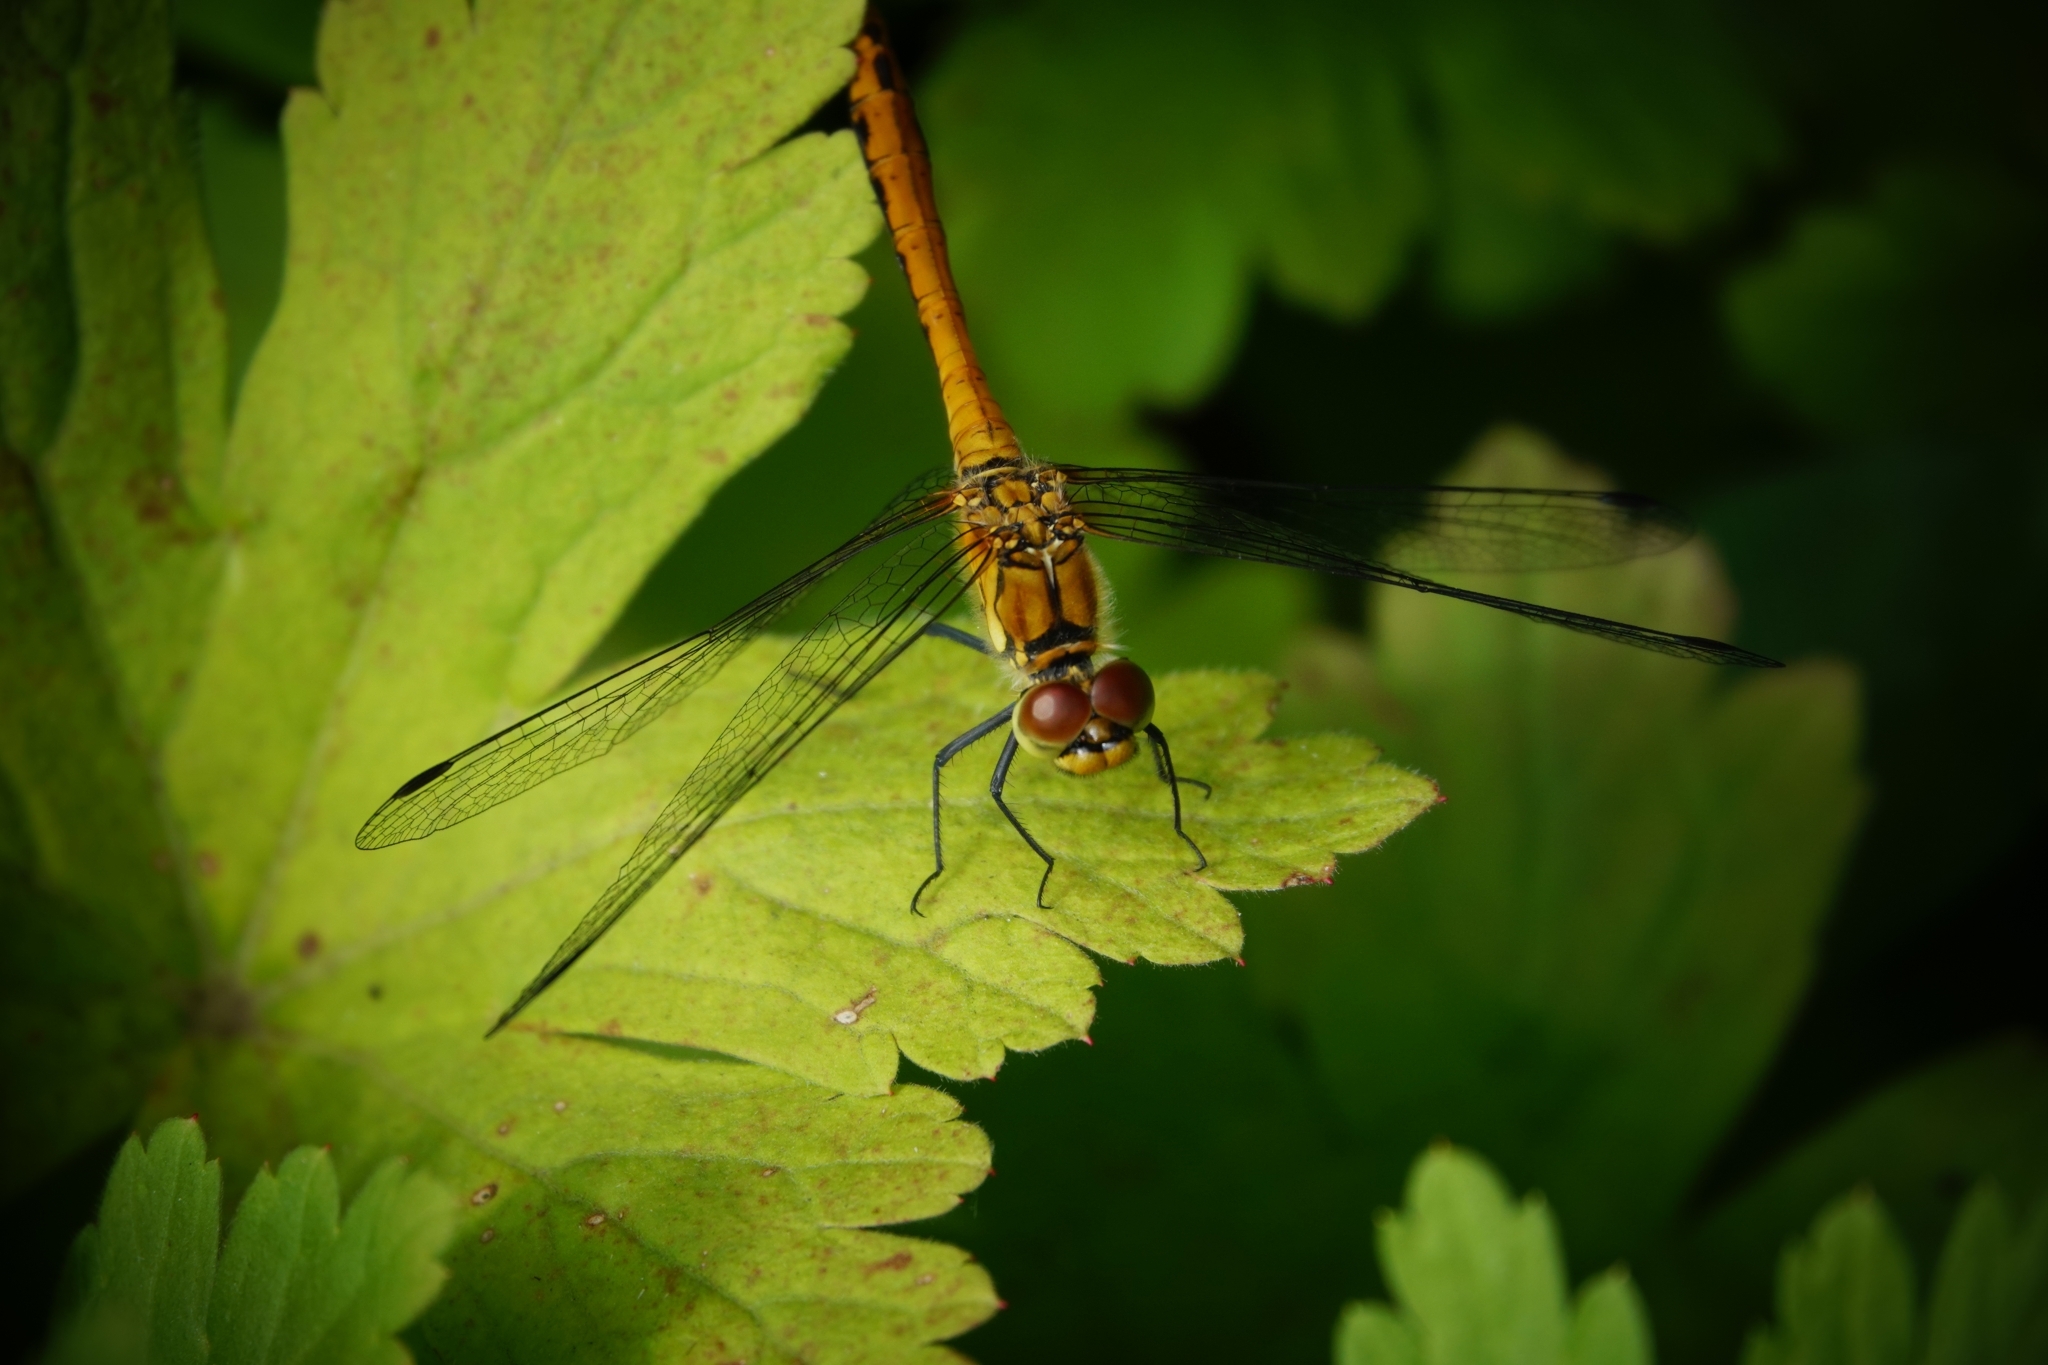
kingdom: Animalia
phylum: Arthropoda
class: Insecta
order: Odonata
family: Libellulidae
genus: Sympetrum
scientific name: Sympetrum sanguineum
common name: Ruddy darter
